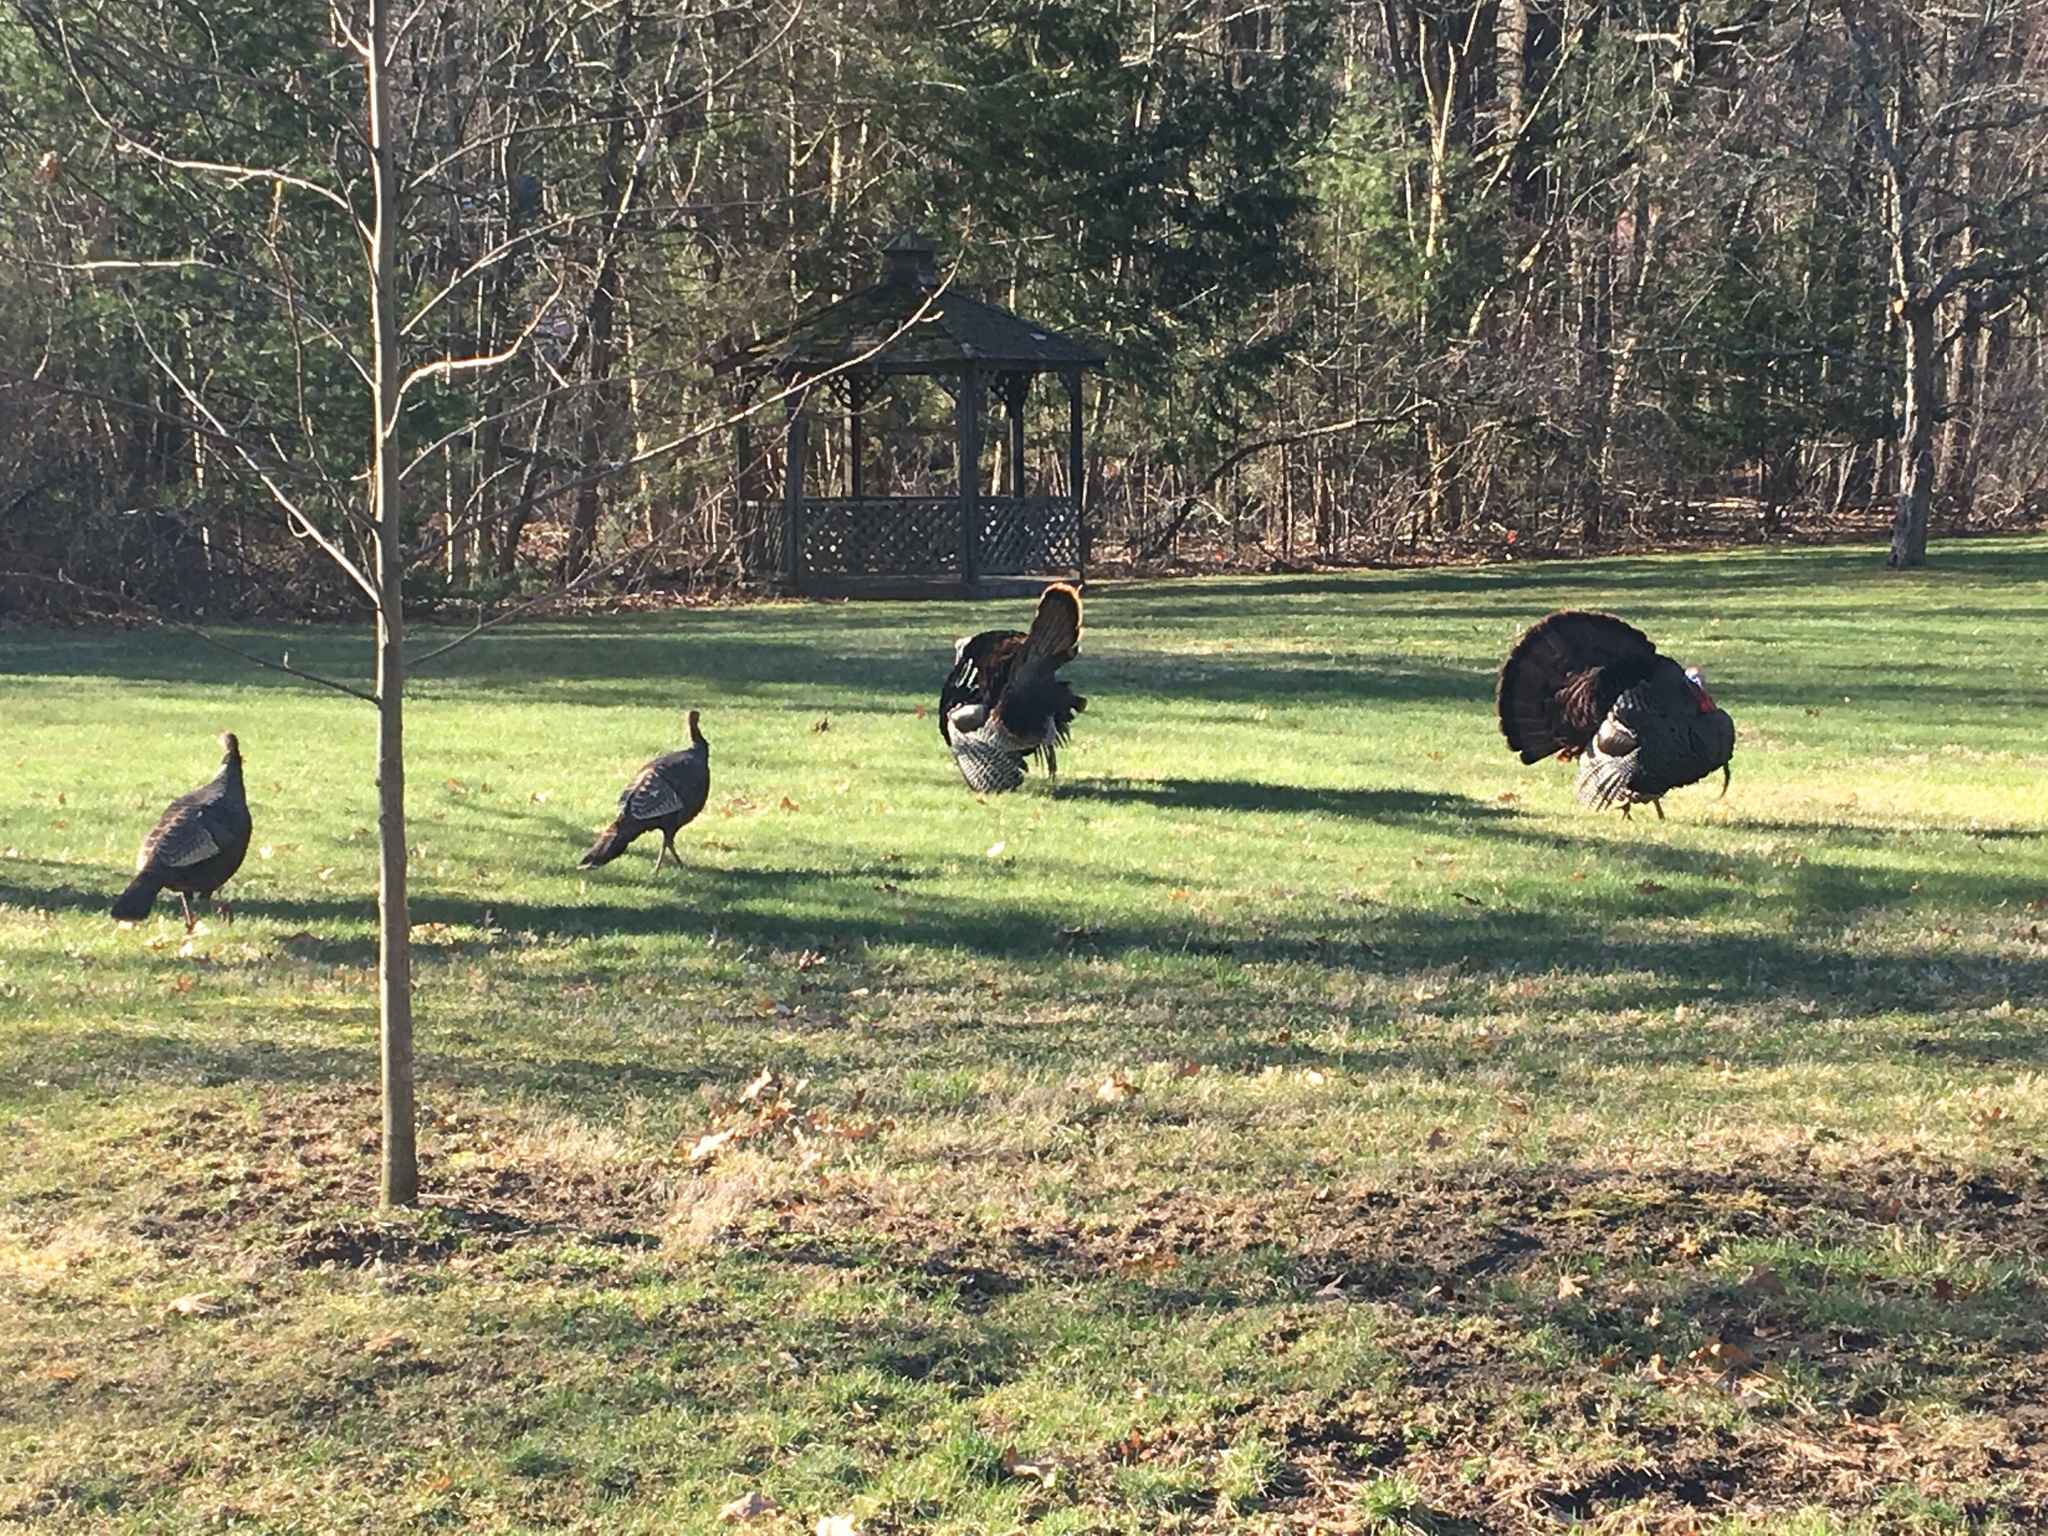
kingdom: Animalia
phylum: Chordata
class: Aves
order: Galliformes
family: Phasianidae
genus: Meleagris
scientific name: Meleagris gallopavo
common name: Wild turkey
